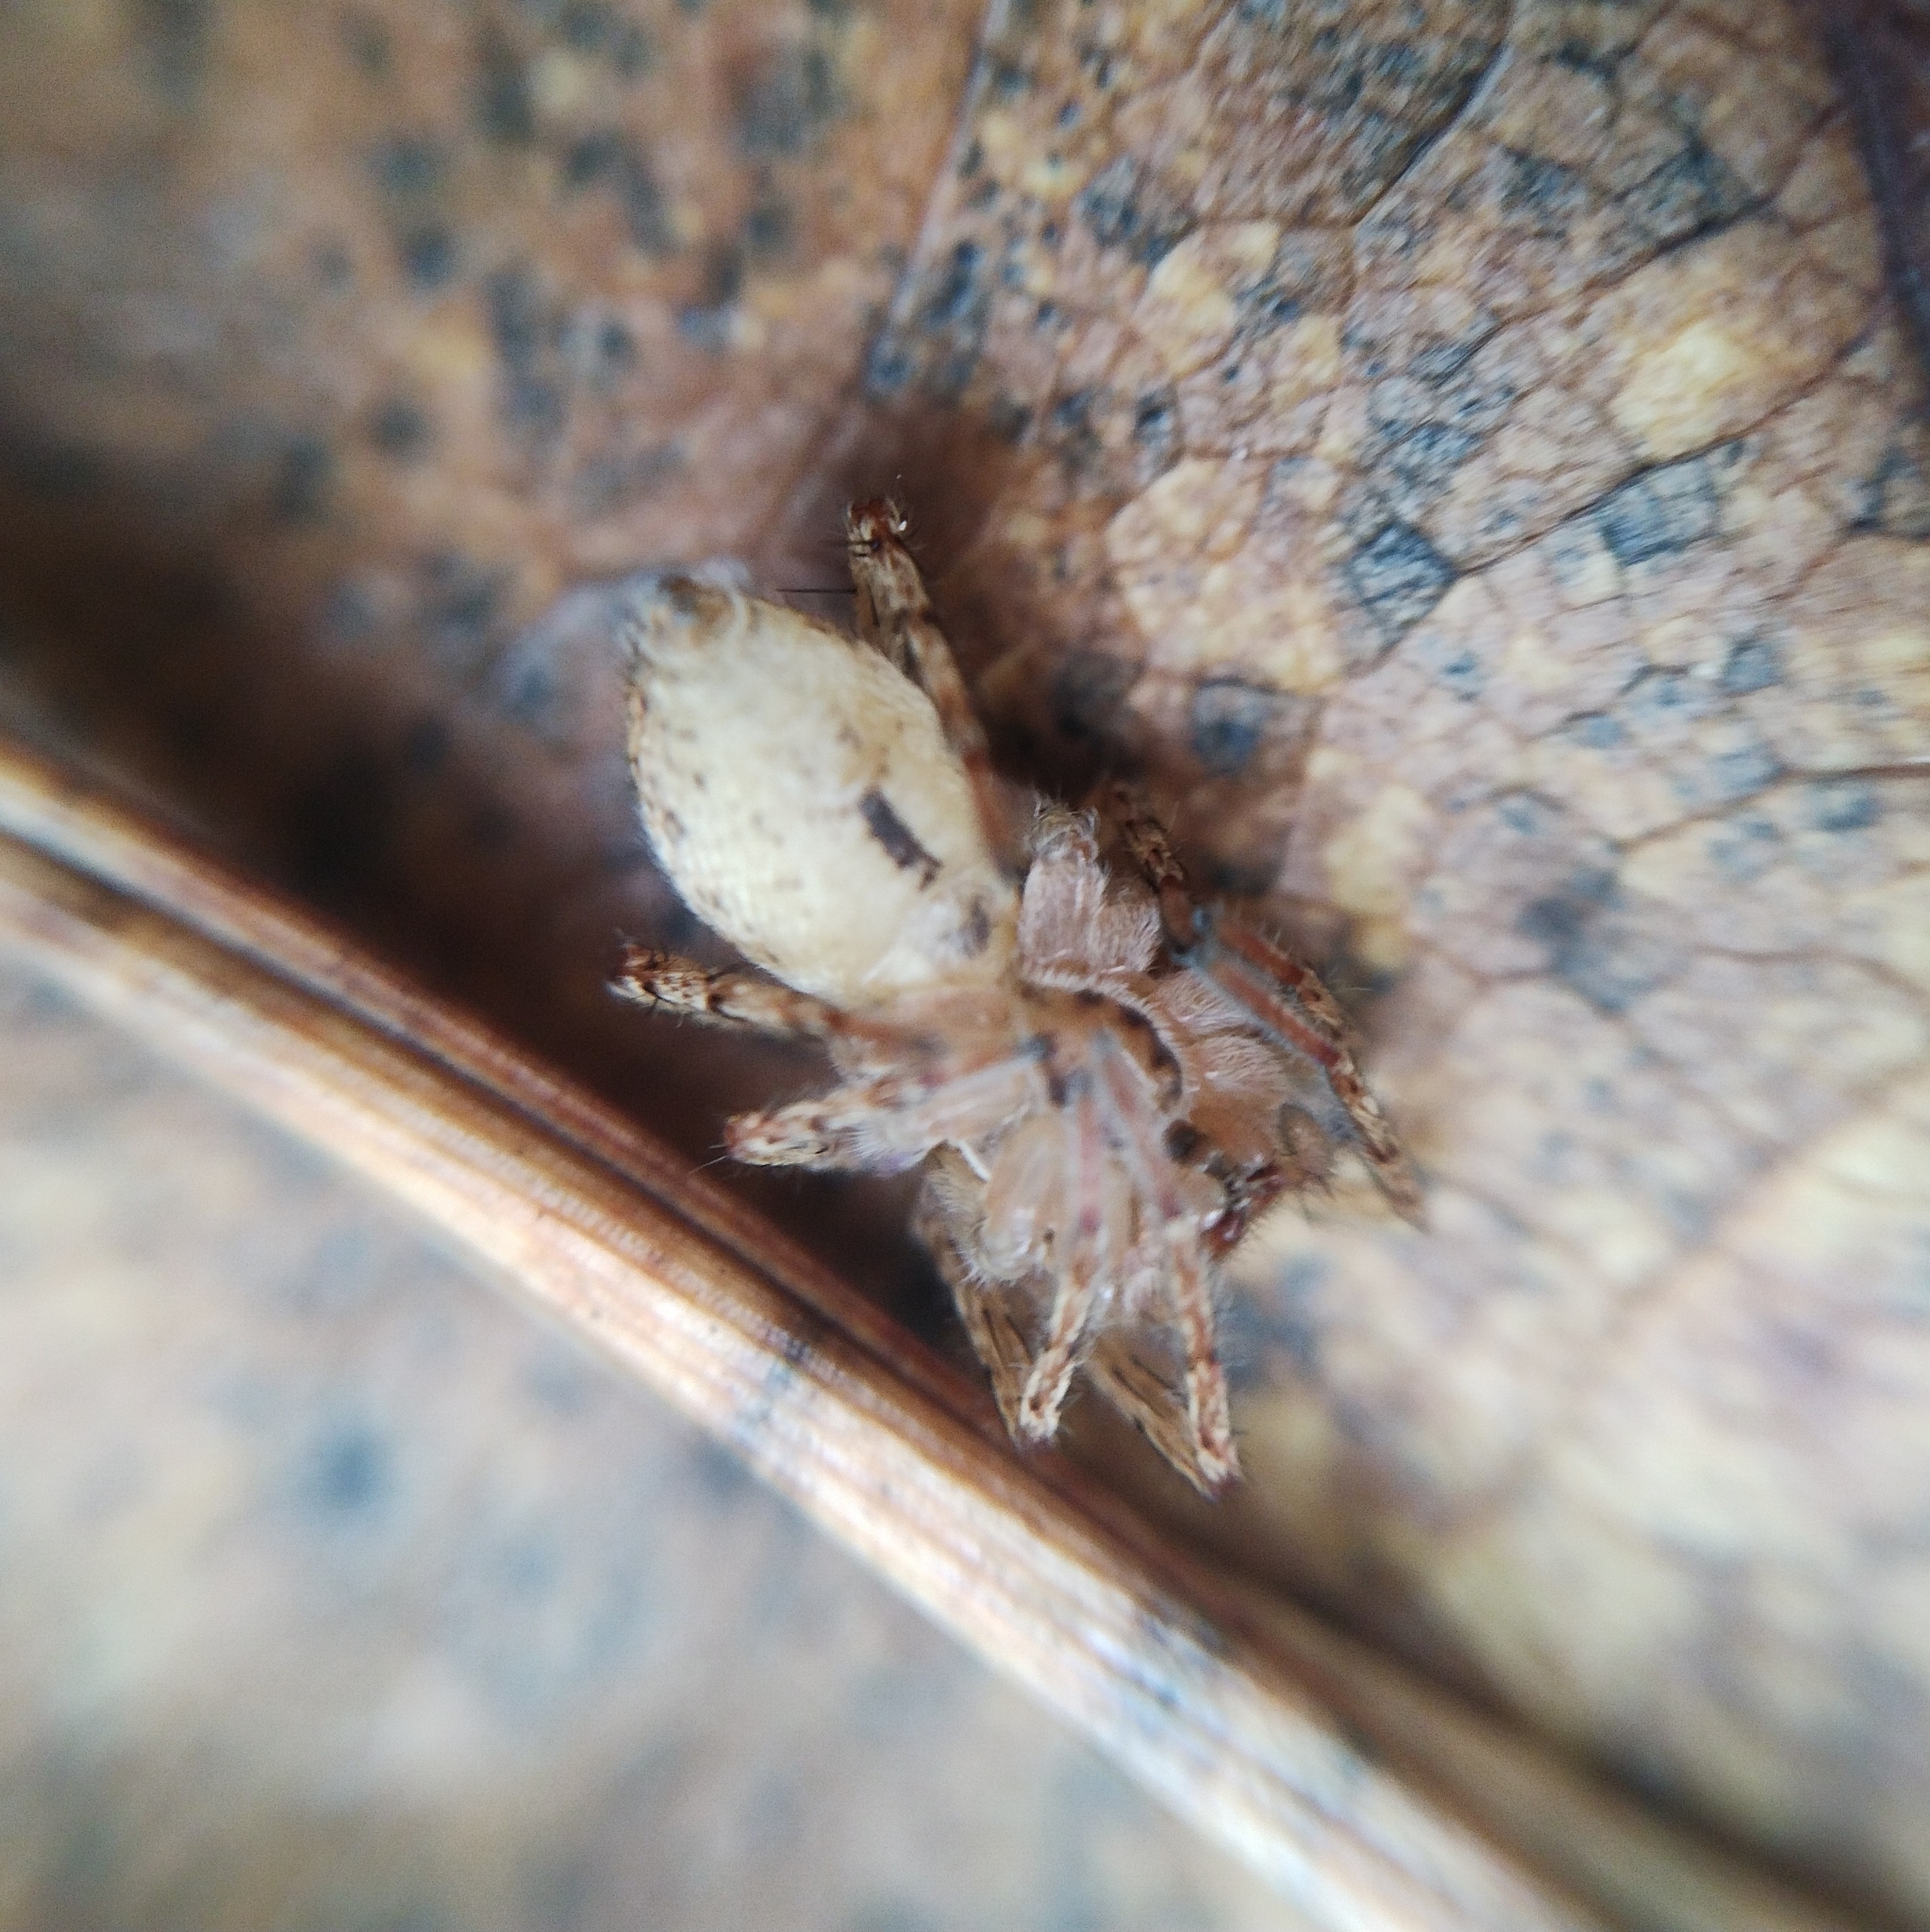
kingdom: Animalia
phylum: Arthropoda
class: Arachnida
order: Araneae
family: Anyphaenidae
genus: Anyphaena
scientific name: Anyphaena accentuata
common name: Buzzing spider
